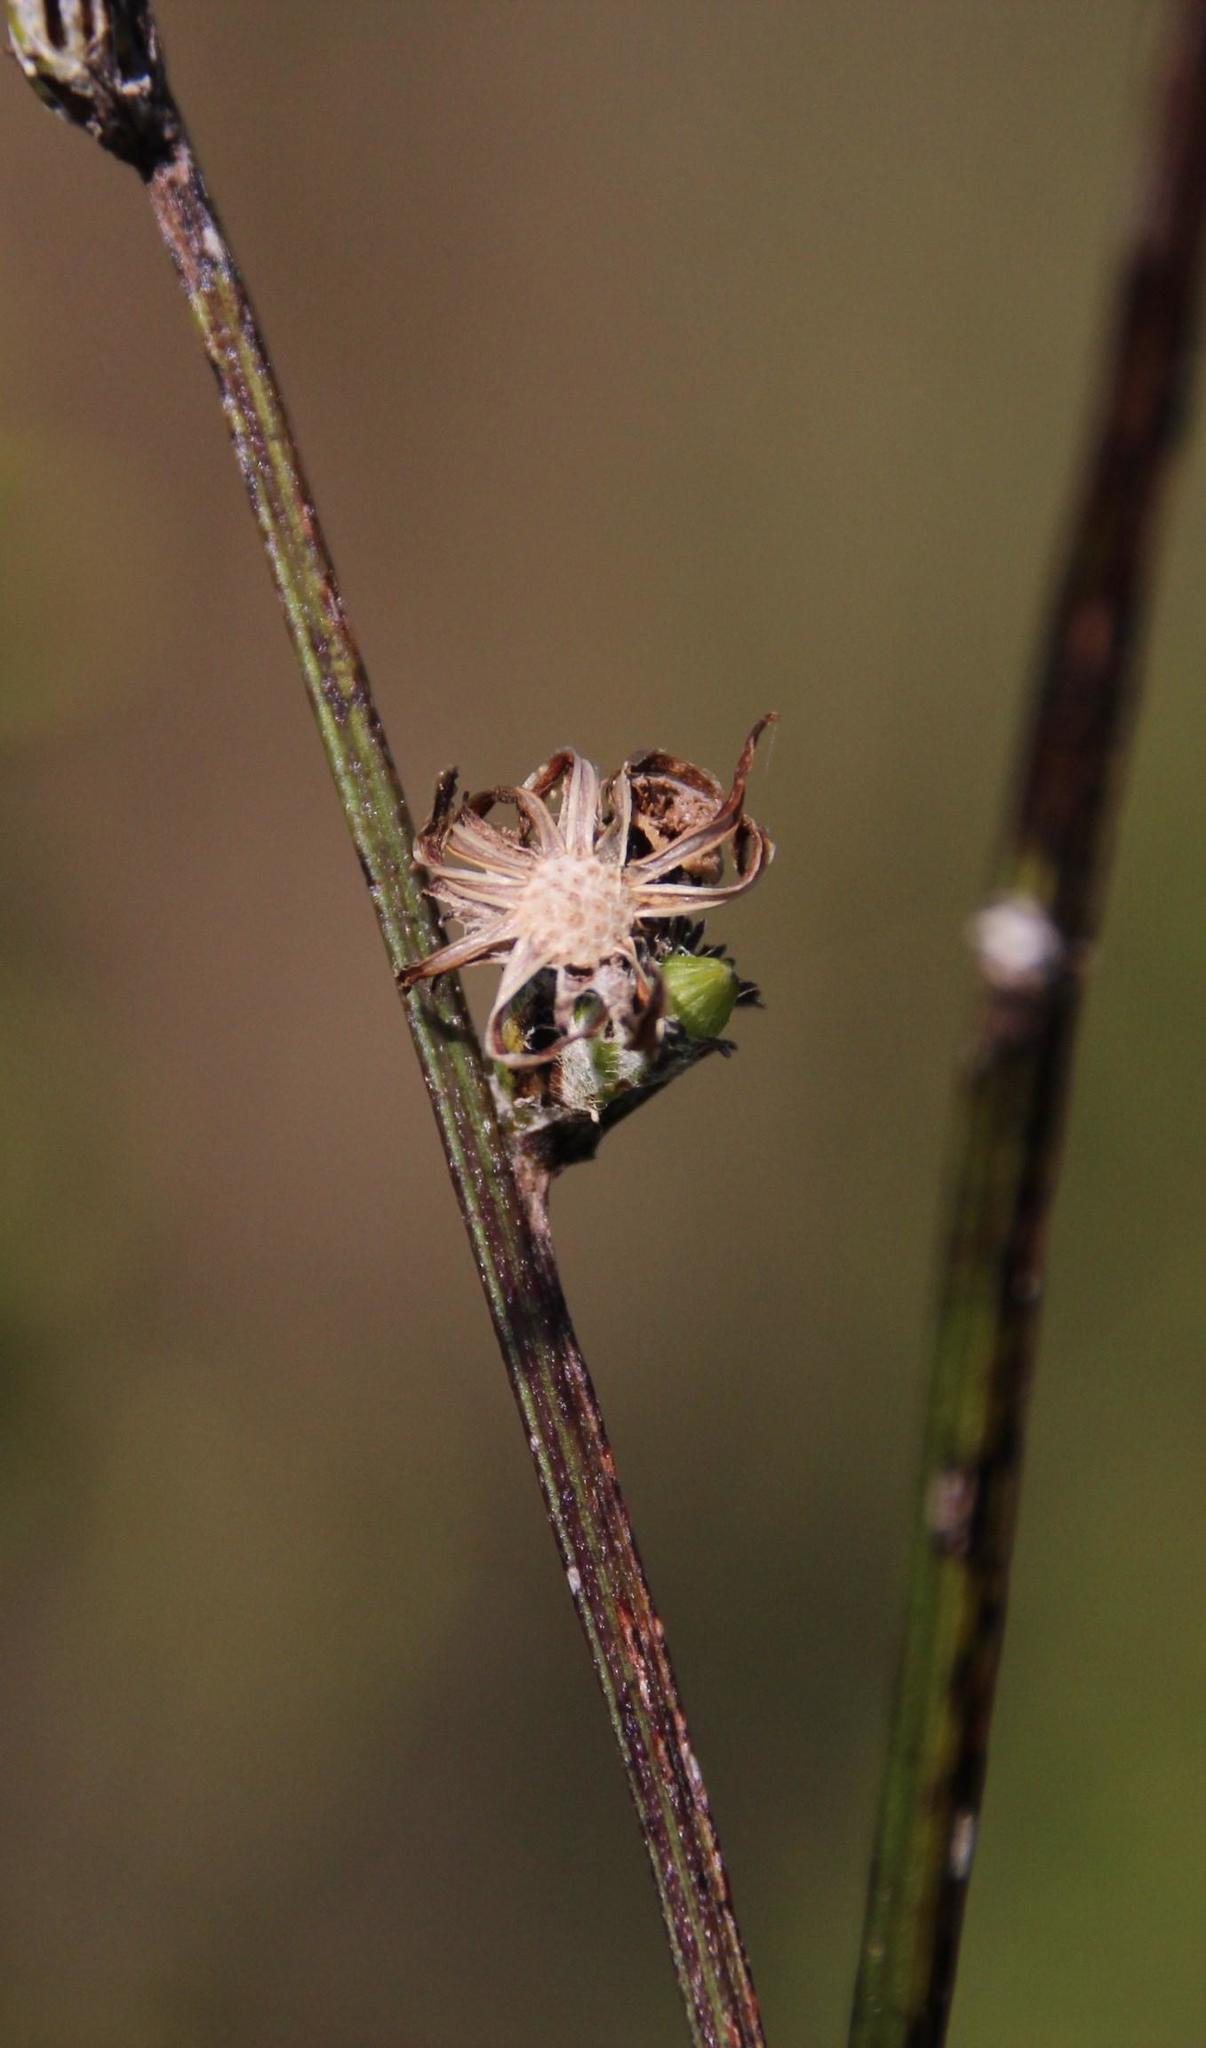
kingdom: Plantae
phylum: Tracheophyta
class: Magnoliopsida
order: Asterales
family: Asteraceae
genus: Senecio
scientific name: Senecio pubigerus
